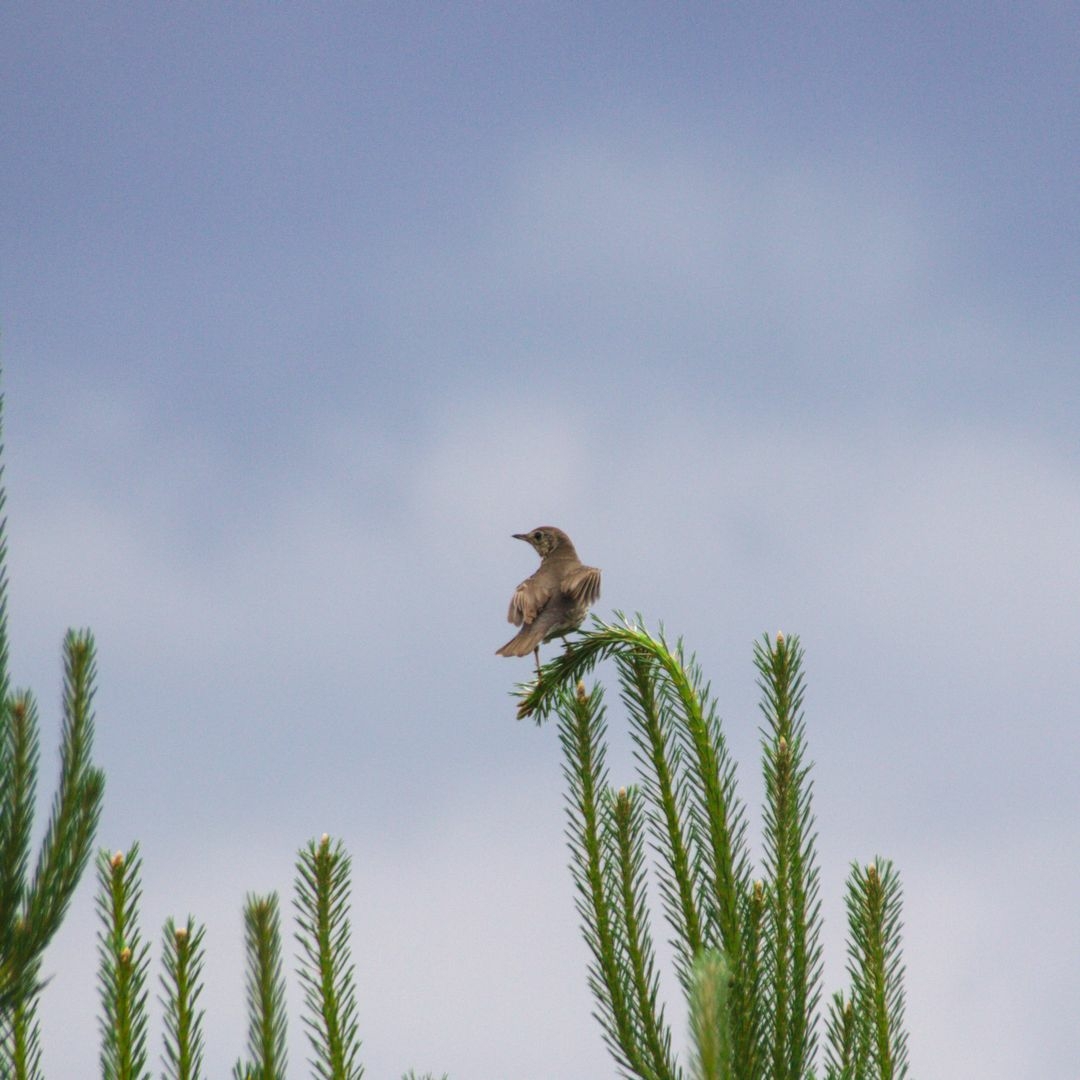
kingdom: Animalia
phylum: Chordata
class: Aves
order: Passeriformes
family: Turdidae
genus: Turdus
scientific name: Turdus philomelos
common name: Song thrush
